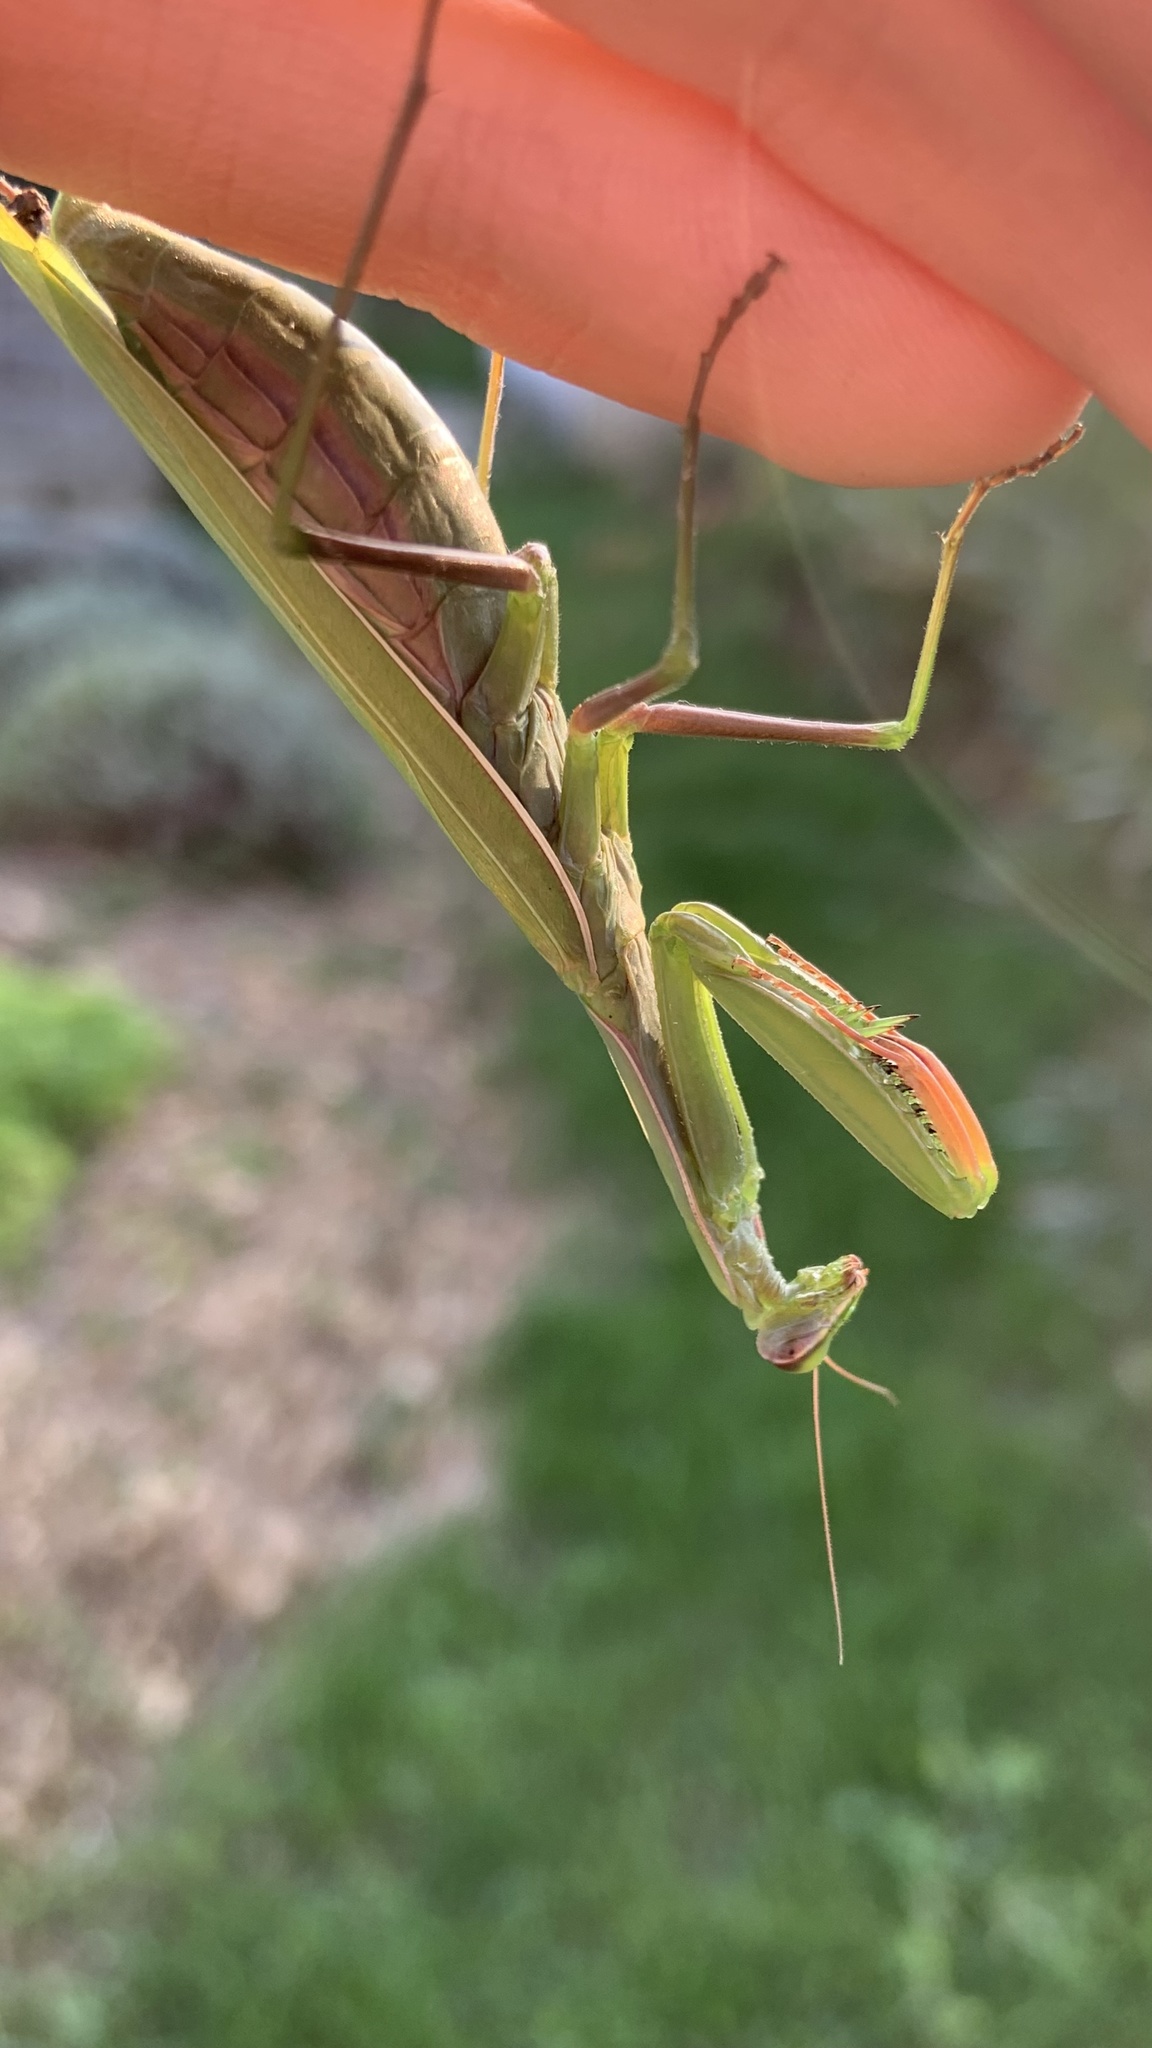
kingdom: Animalia
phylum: Arthropoda
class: Insecta
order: Mantodea
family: Mantidae
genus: Mantis
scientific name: Mantis religiosa
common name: Praying mantis
